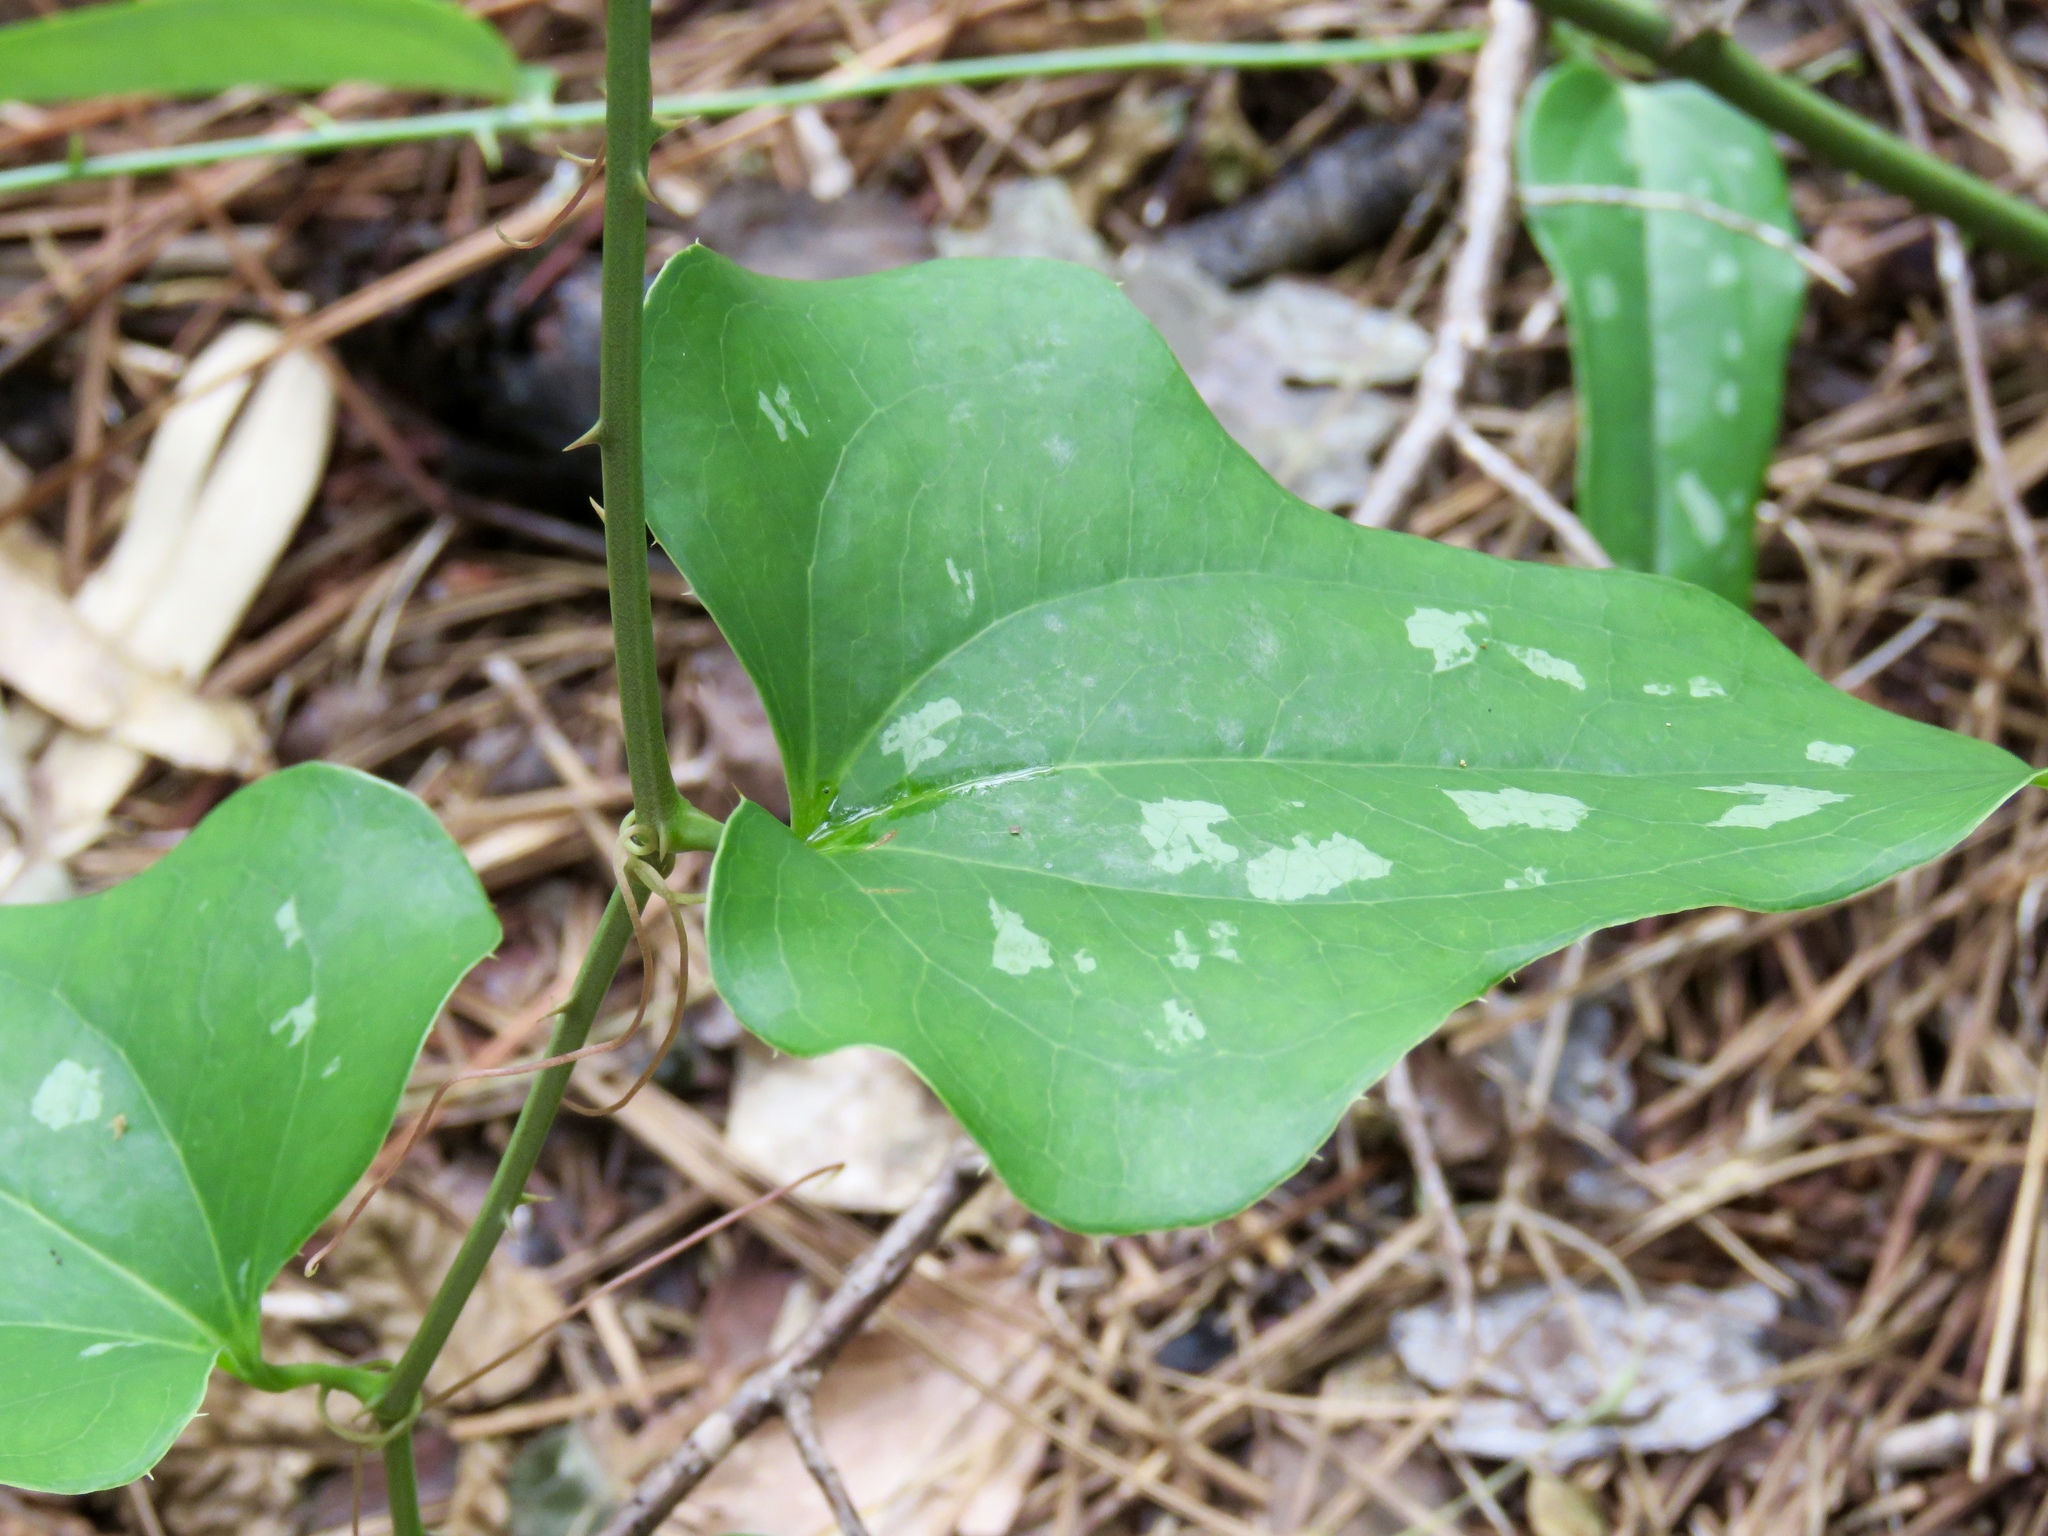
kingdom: Plantae
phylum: Tracheophyta
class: Liliopsida
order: Liliales
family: Smilacaceae
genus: Smilax
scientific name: Smilax bona-nox
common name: Catbrier
